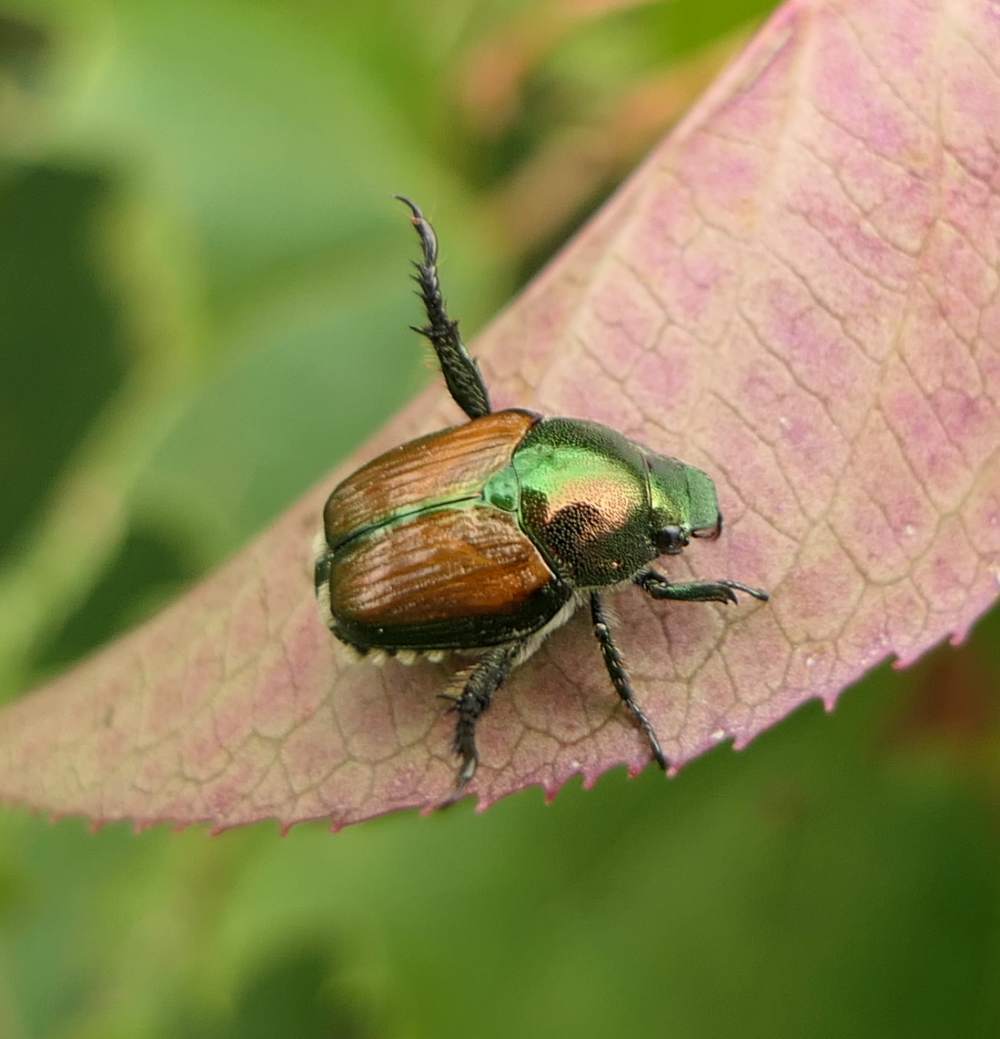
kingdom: Animalia
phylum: Arthropoda
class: Insecta
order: Coleoptera
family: Scarabaeidae
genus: Popillia
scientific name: Popillia japonica
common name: Japanese beetle
